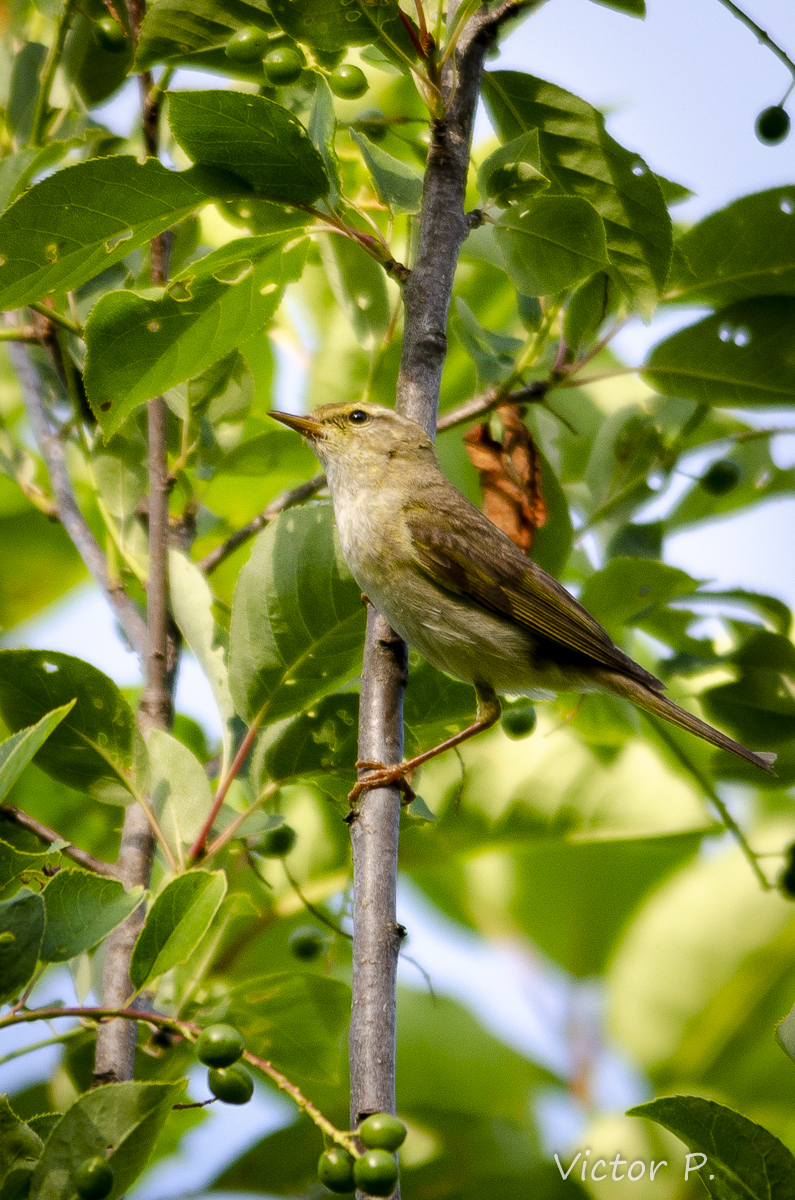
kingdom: Animalia
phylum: Chordata
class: Aves
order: Passeriformes
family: Phylloscopidae
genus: Phylloscopus
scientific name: Phylloscopus trochilus
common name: Willow warbler
